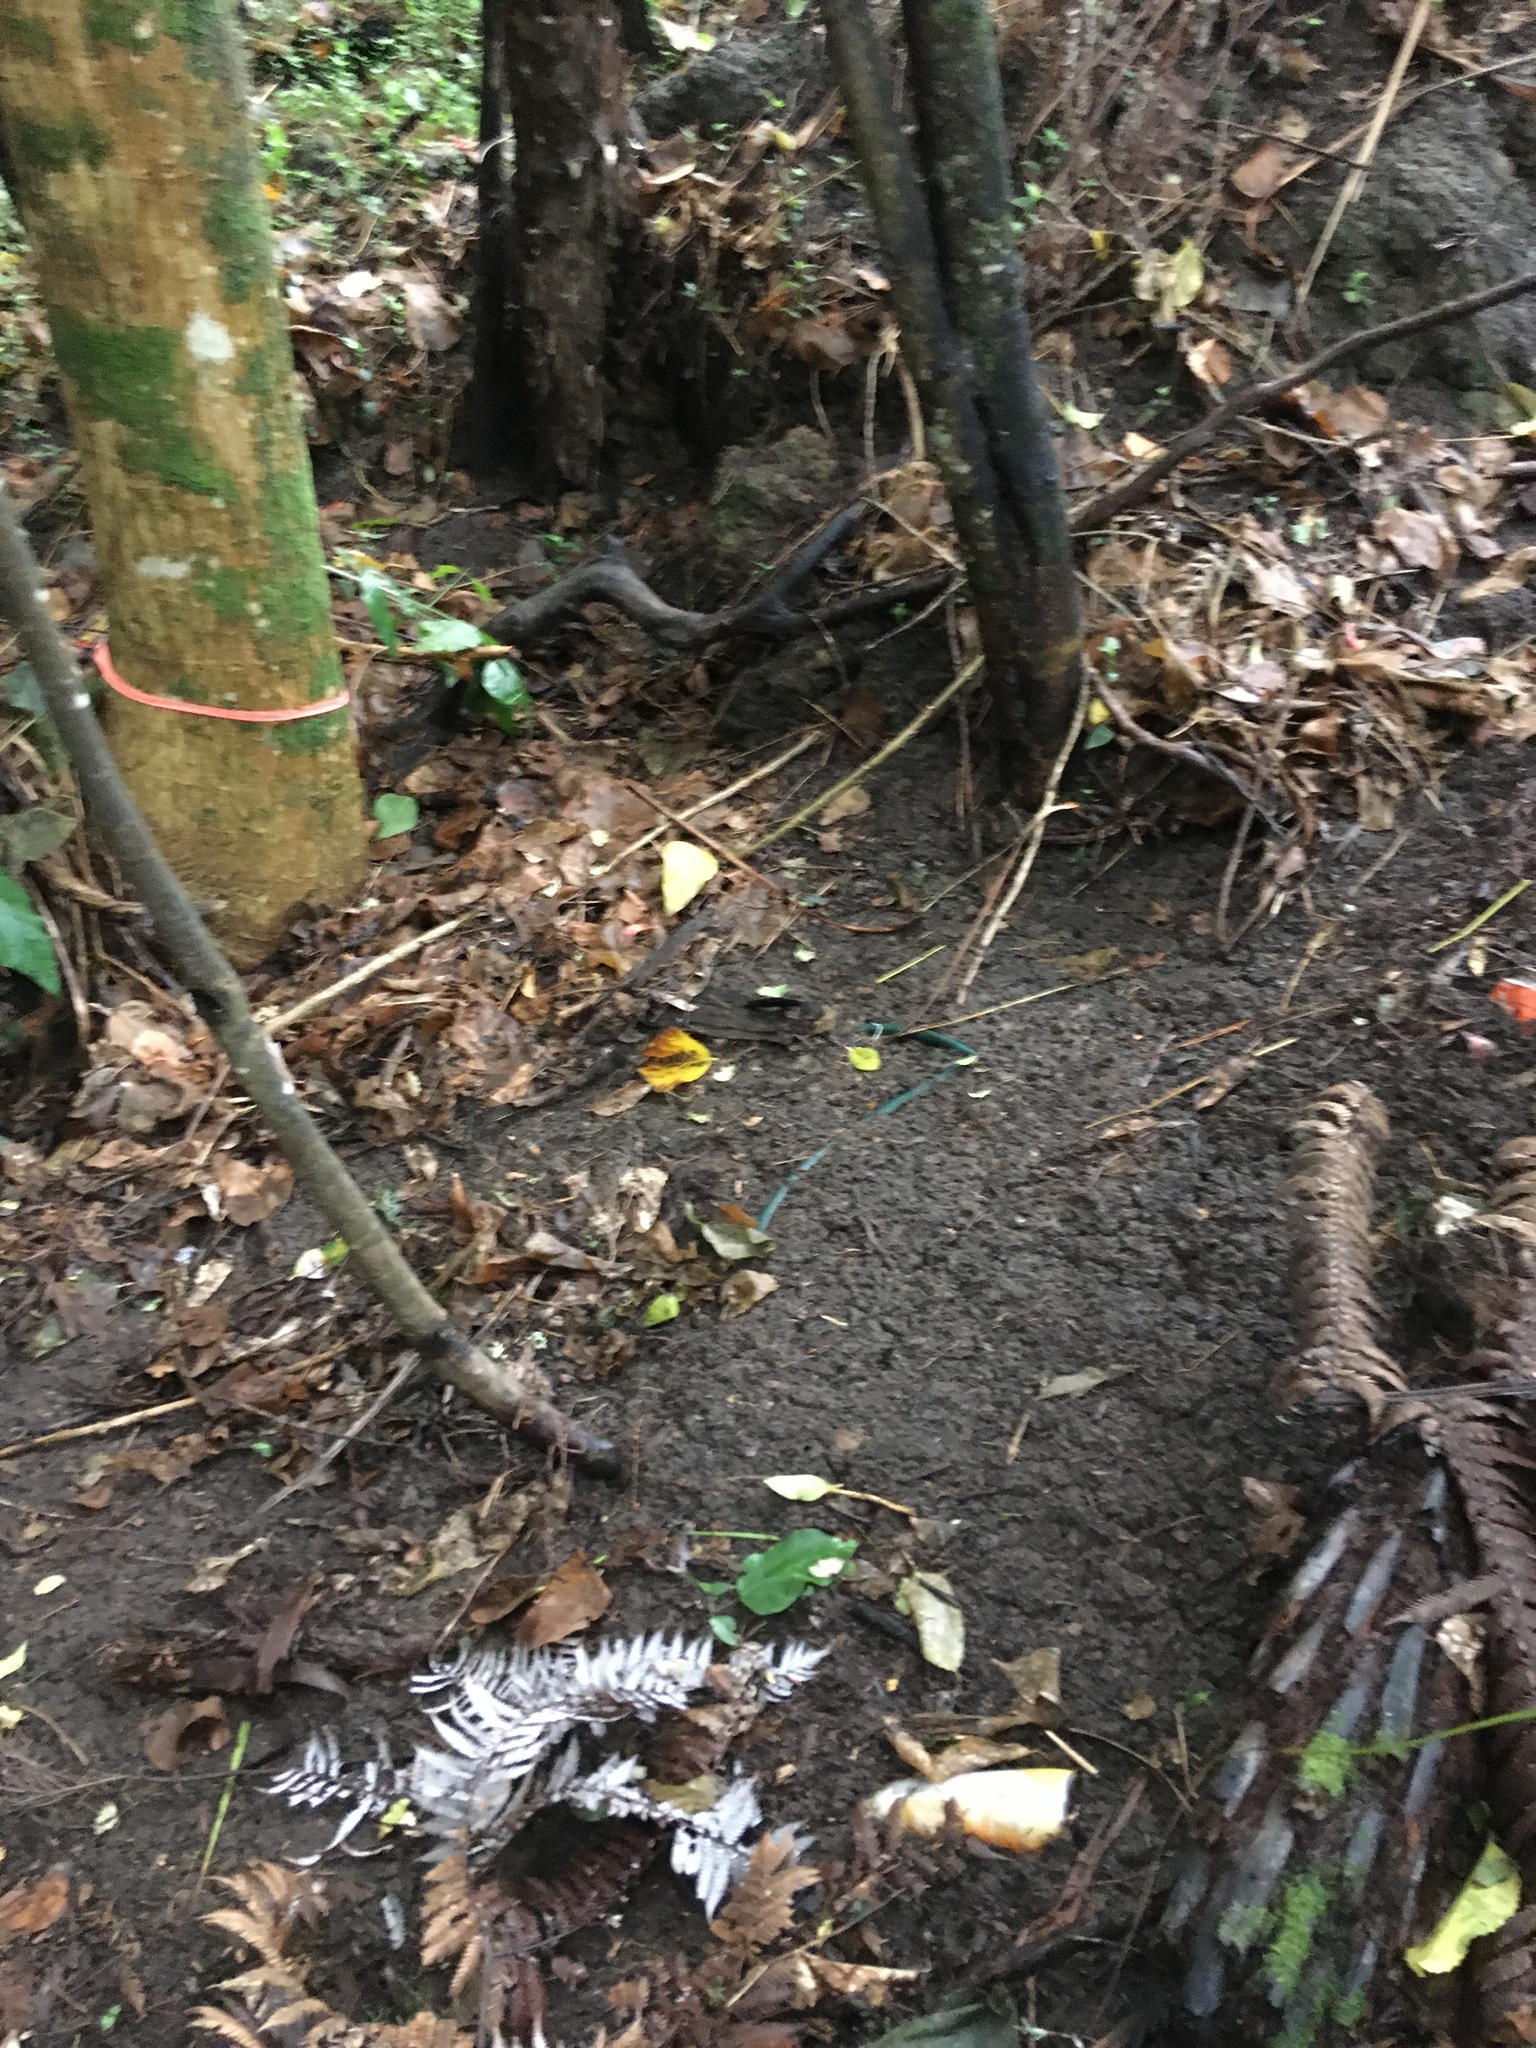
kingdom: Plantae
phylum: Tracheophyta
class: Magnoliopsida
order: Ericales
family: Primulaceae
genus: Myrsine
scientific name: Myrsine australis
